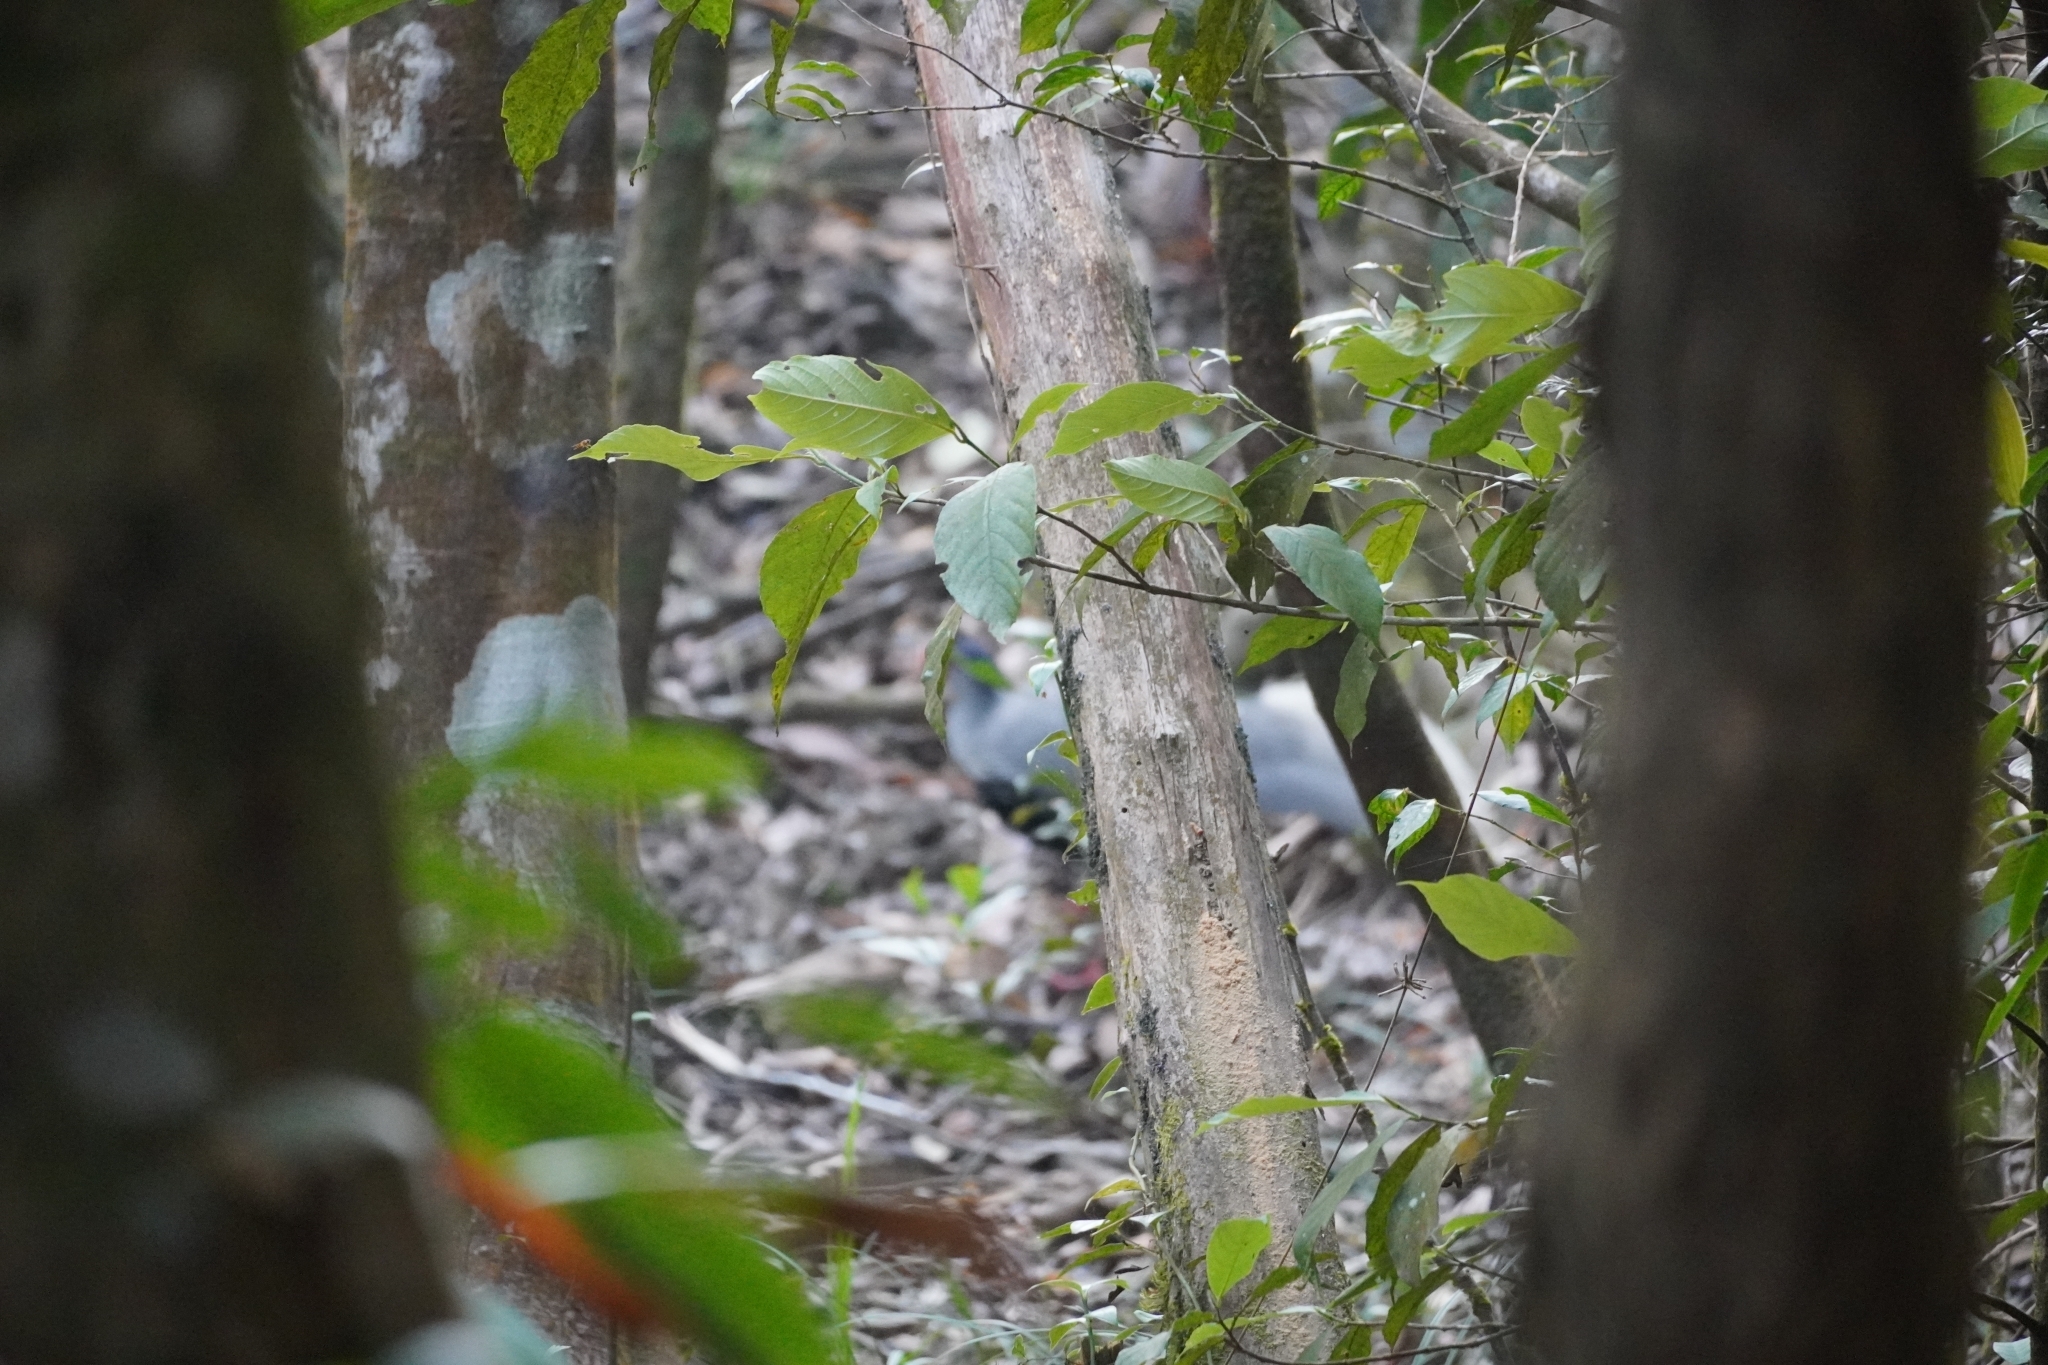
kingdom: Animalia
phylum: Chordata
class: Aves
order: Galliformes
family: Phasianidae
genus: Lophura
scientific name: Lophura nycthemera
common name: Silver pheasant
